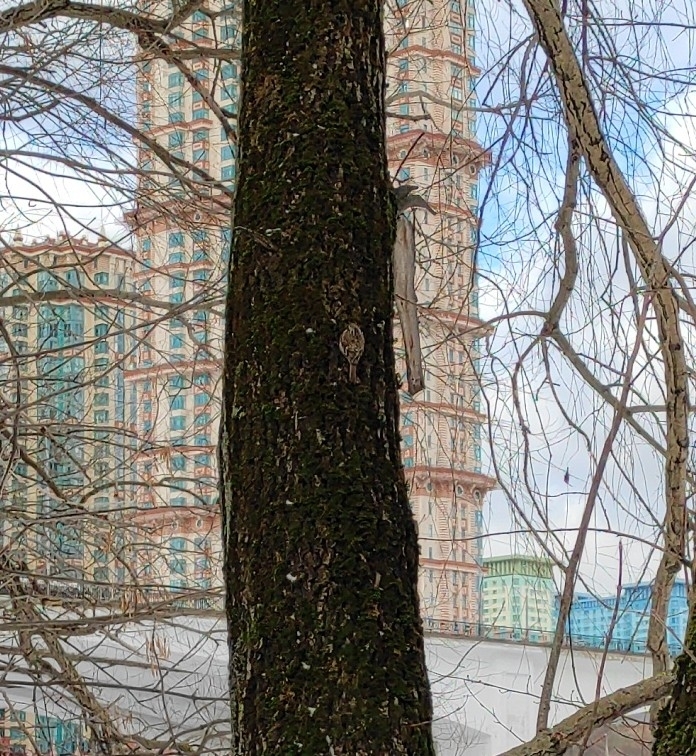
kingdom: Animalia
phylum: Chordata
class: Aves
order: Passeriformes
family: Certhiidae
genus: Certhia
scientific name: Certhia familiaris
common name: Eurasian treecreeper
